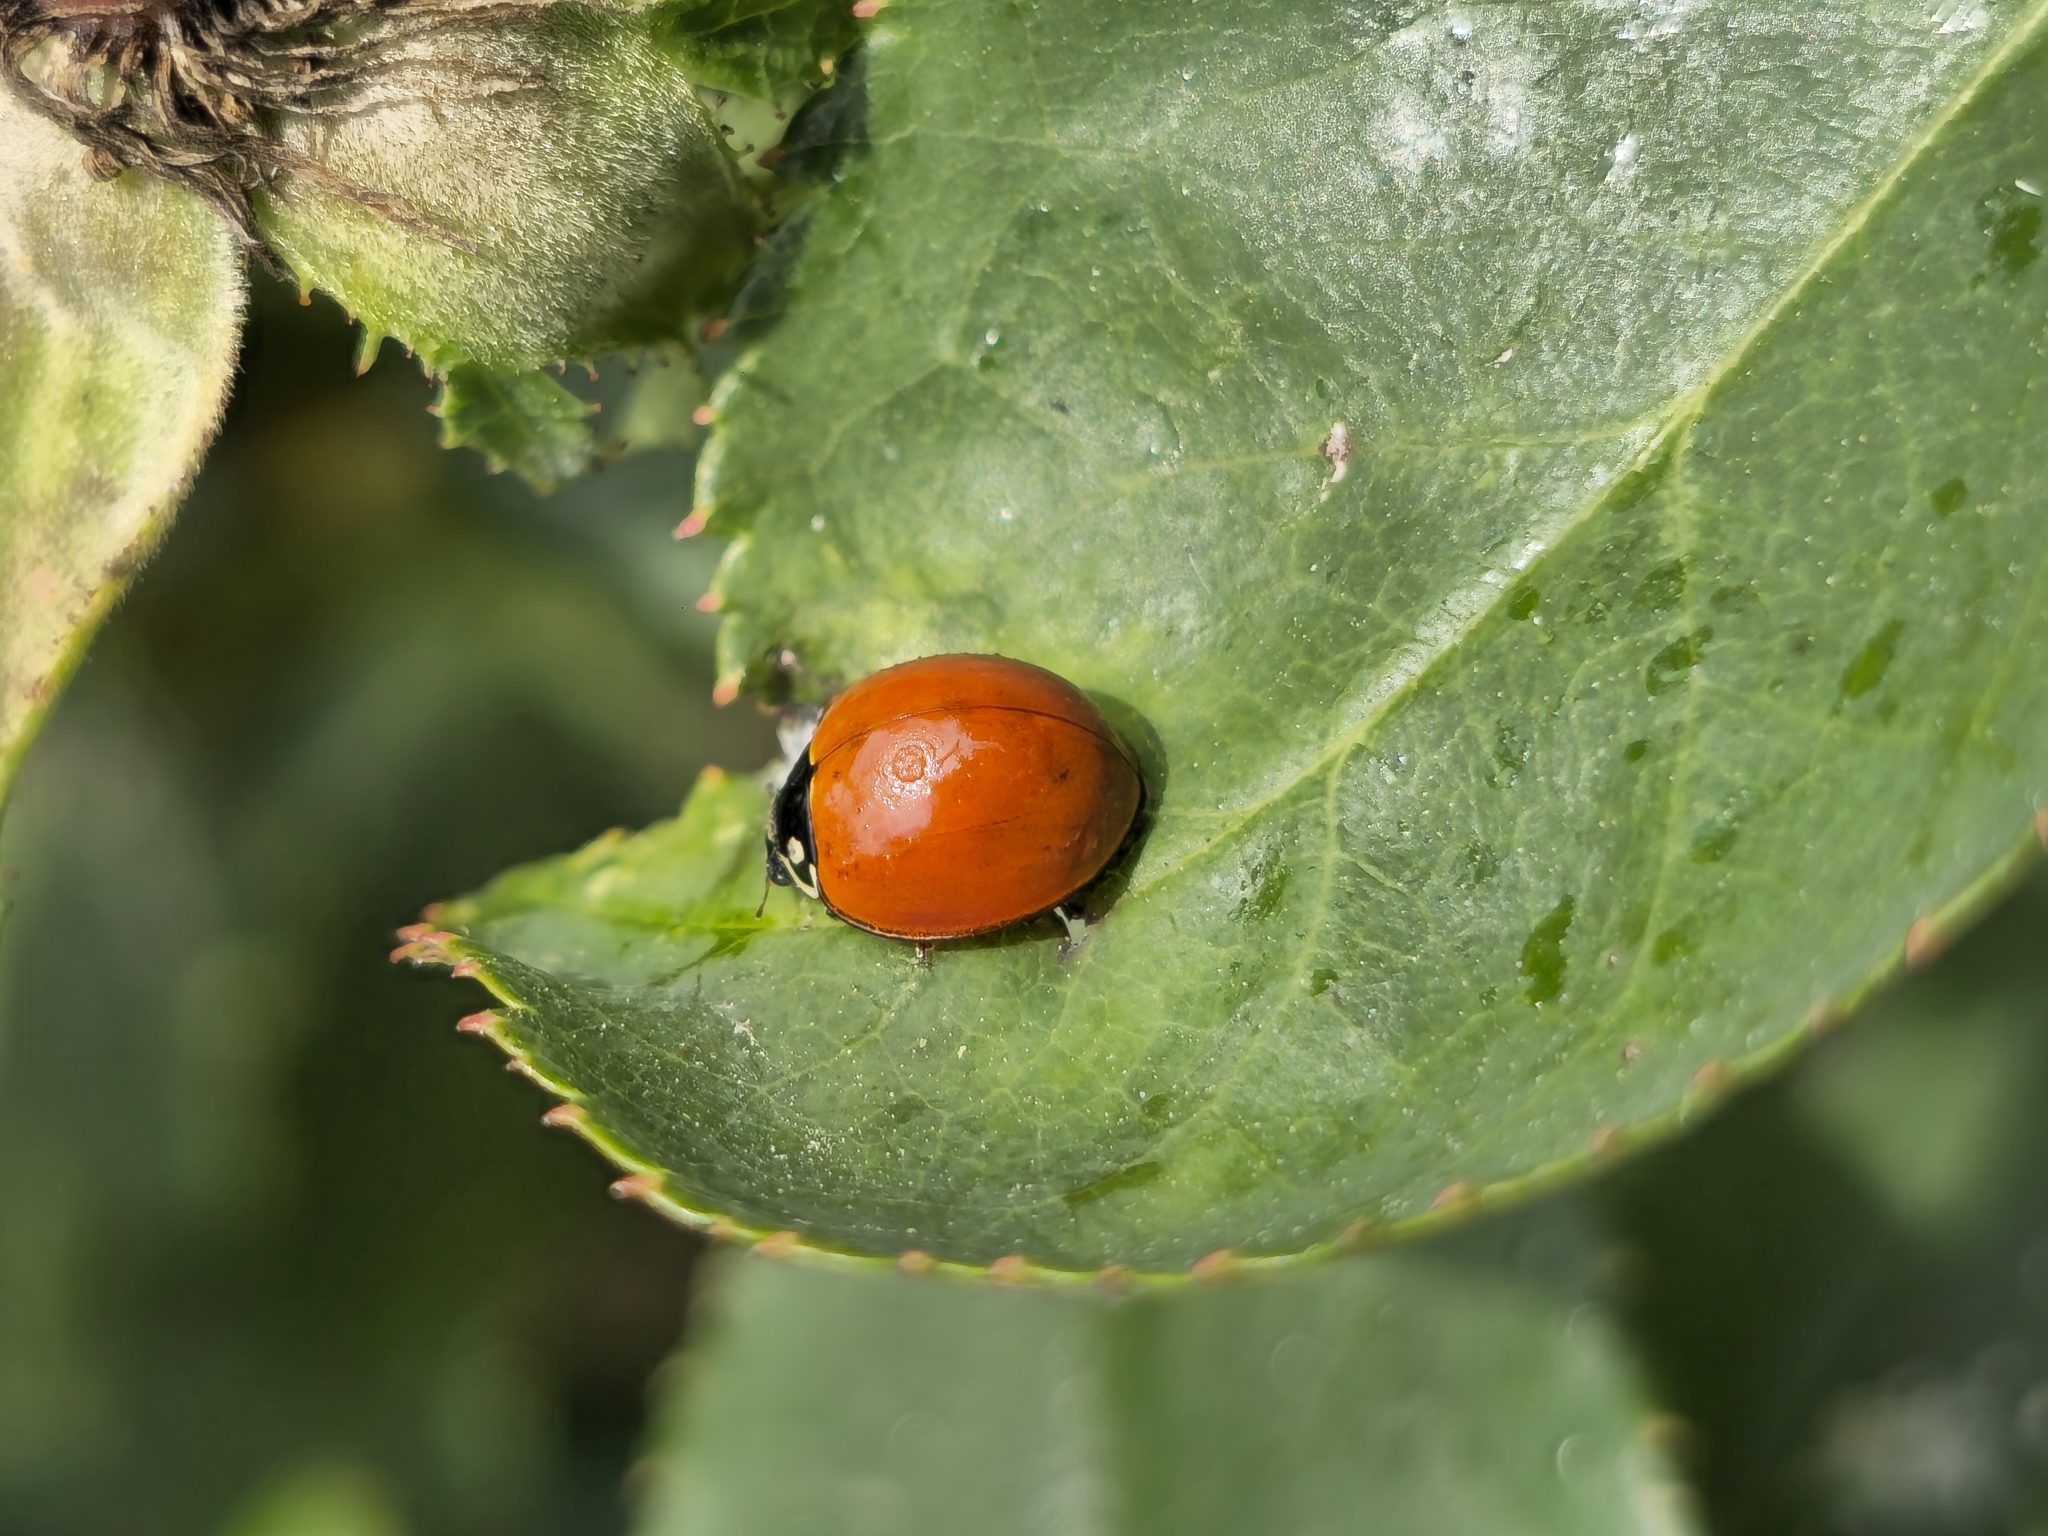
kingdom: Animalia
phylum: Arthropoda
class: Insecta
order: Coleoptera
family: Coccinellidae
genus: Cycloneda
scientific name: Cycloneda emarginata
